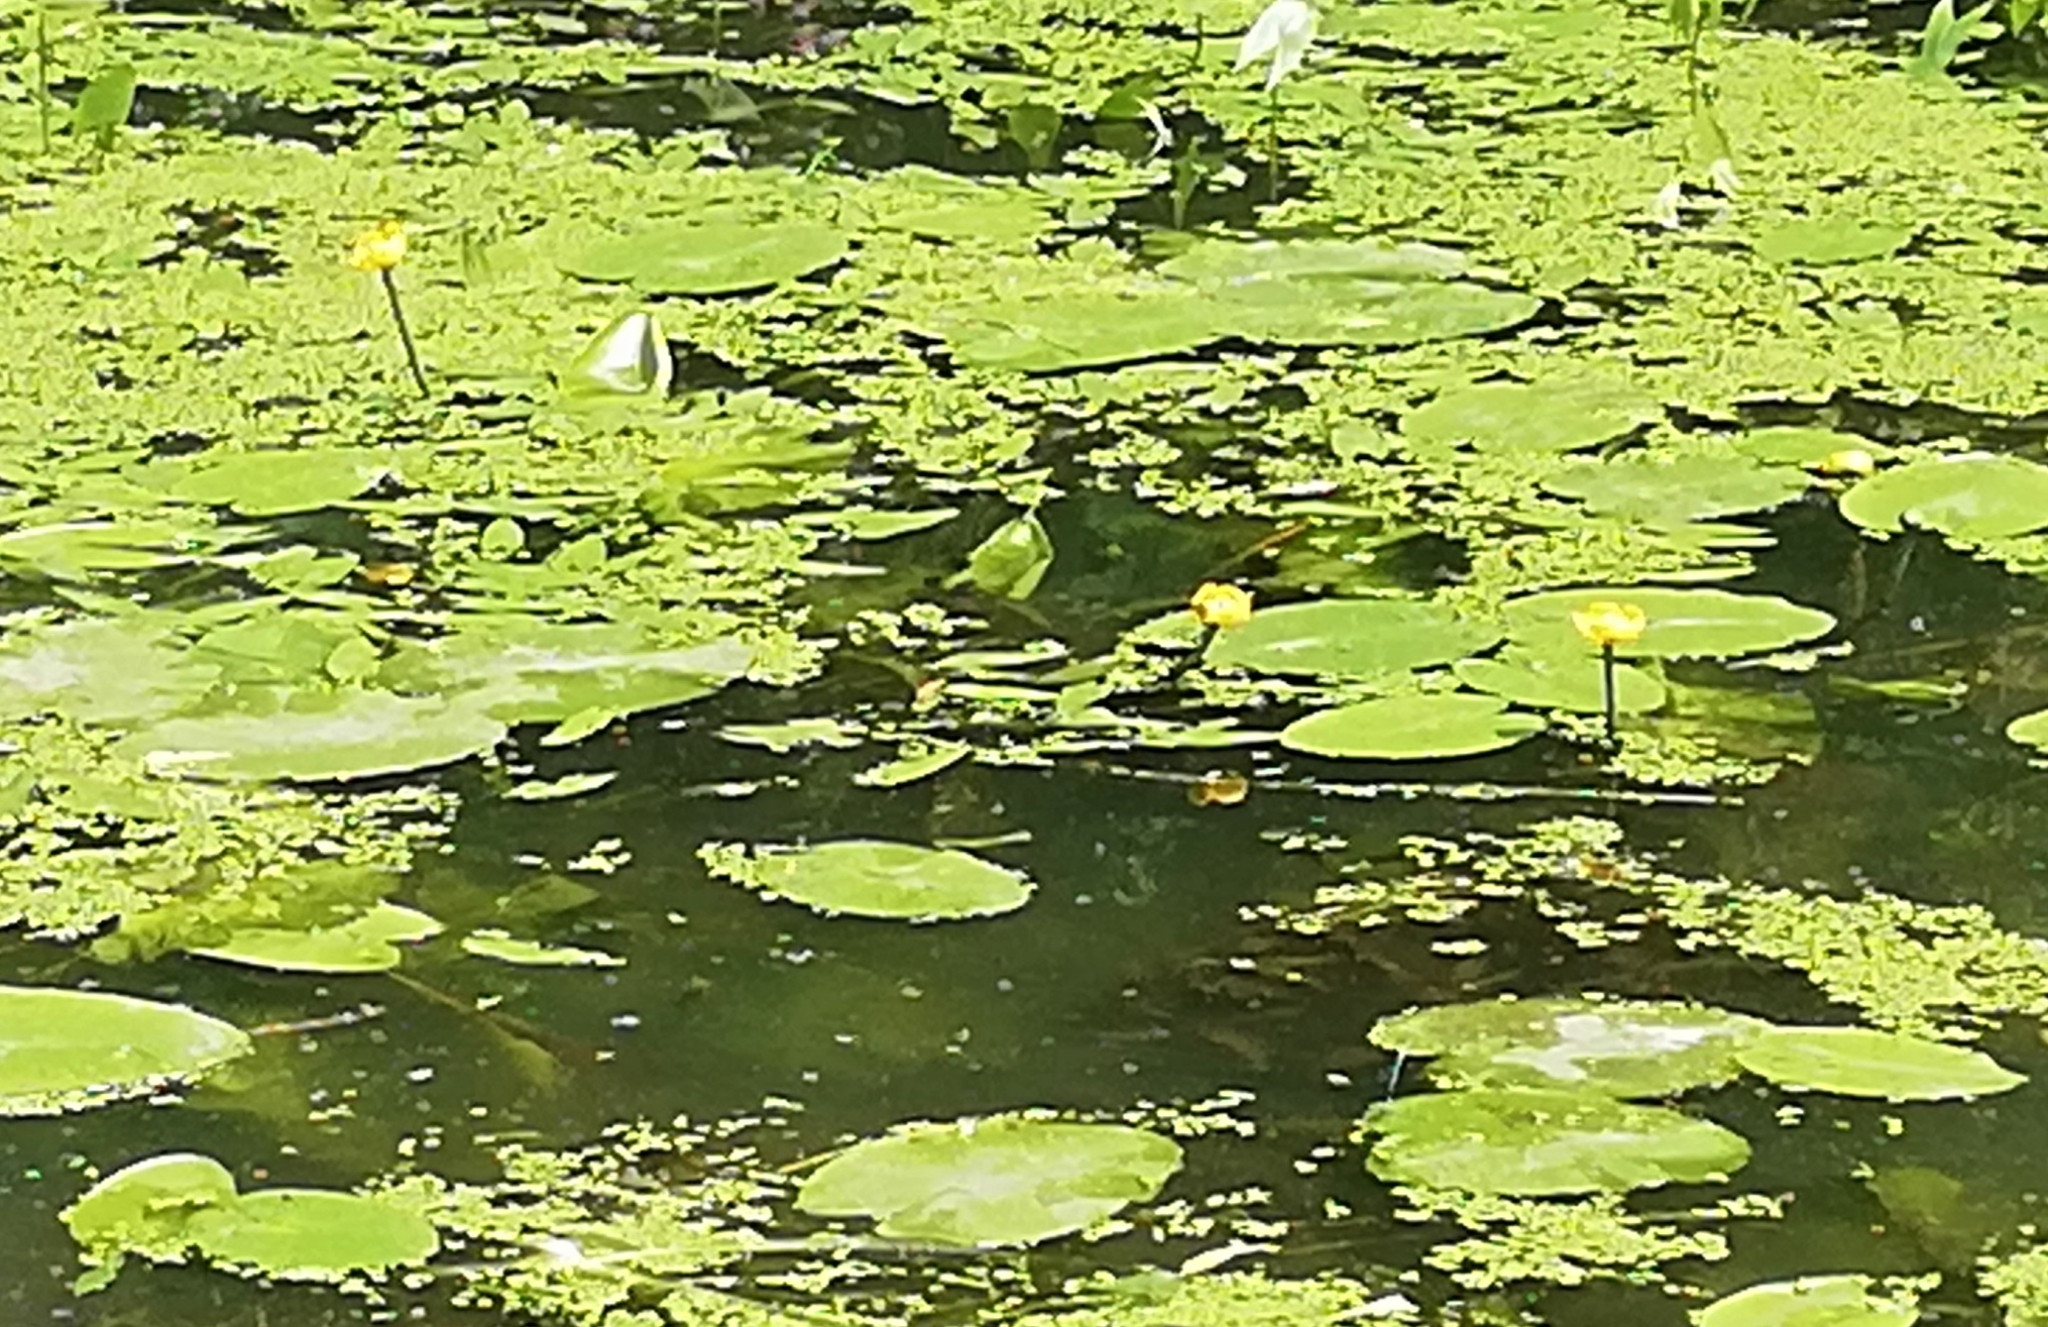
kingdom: Plantae
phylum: Tracheophyta
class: Magnoliopsida
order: Nymphaeales
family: Nymphaeaceae
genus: Nuphar
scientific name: Nuphar lutea
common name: Yellow water-lily
